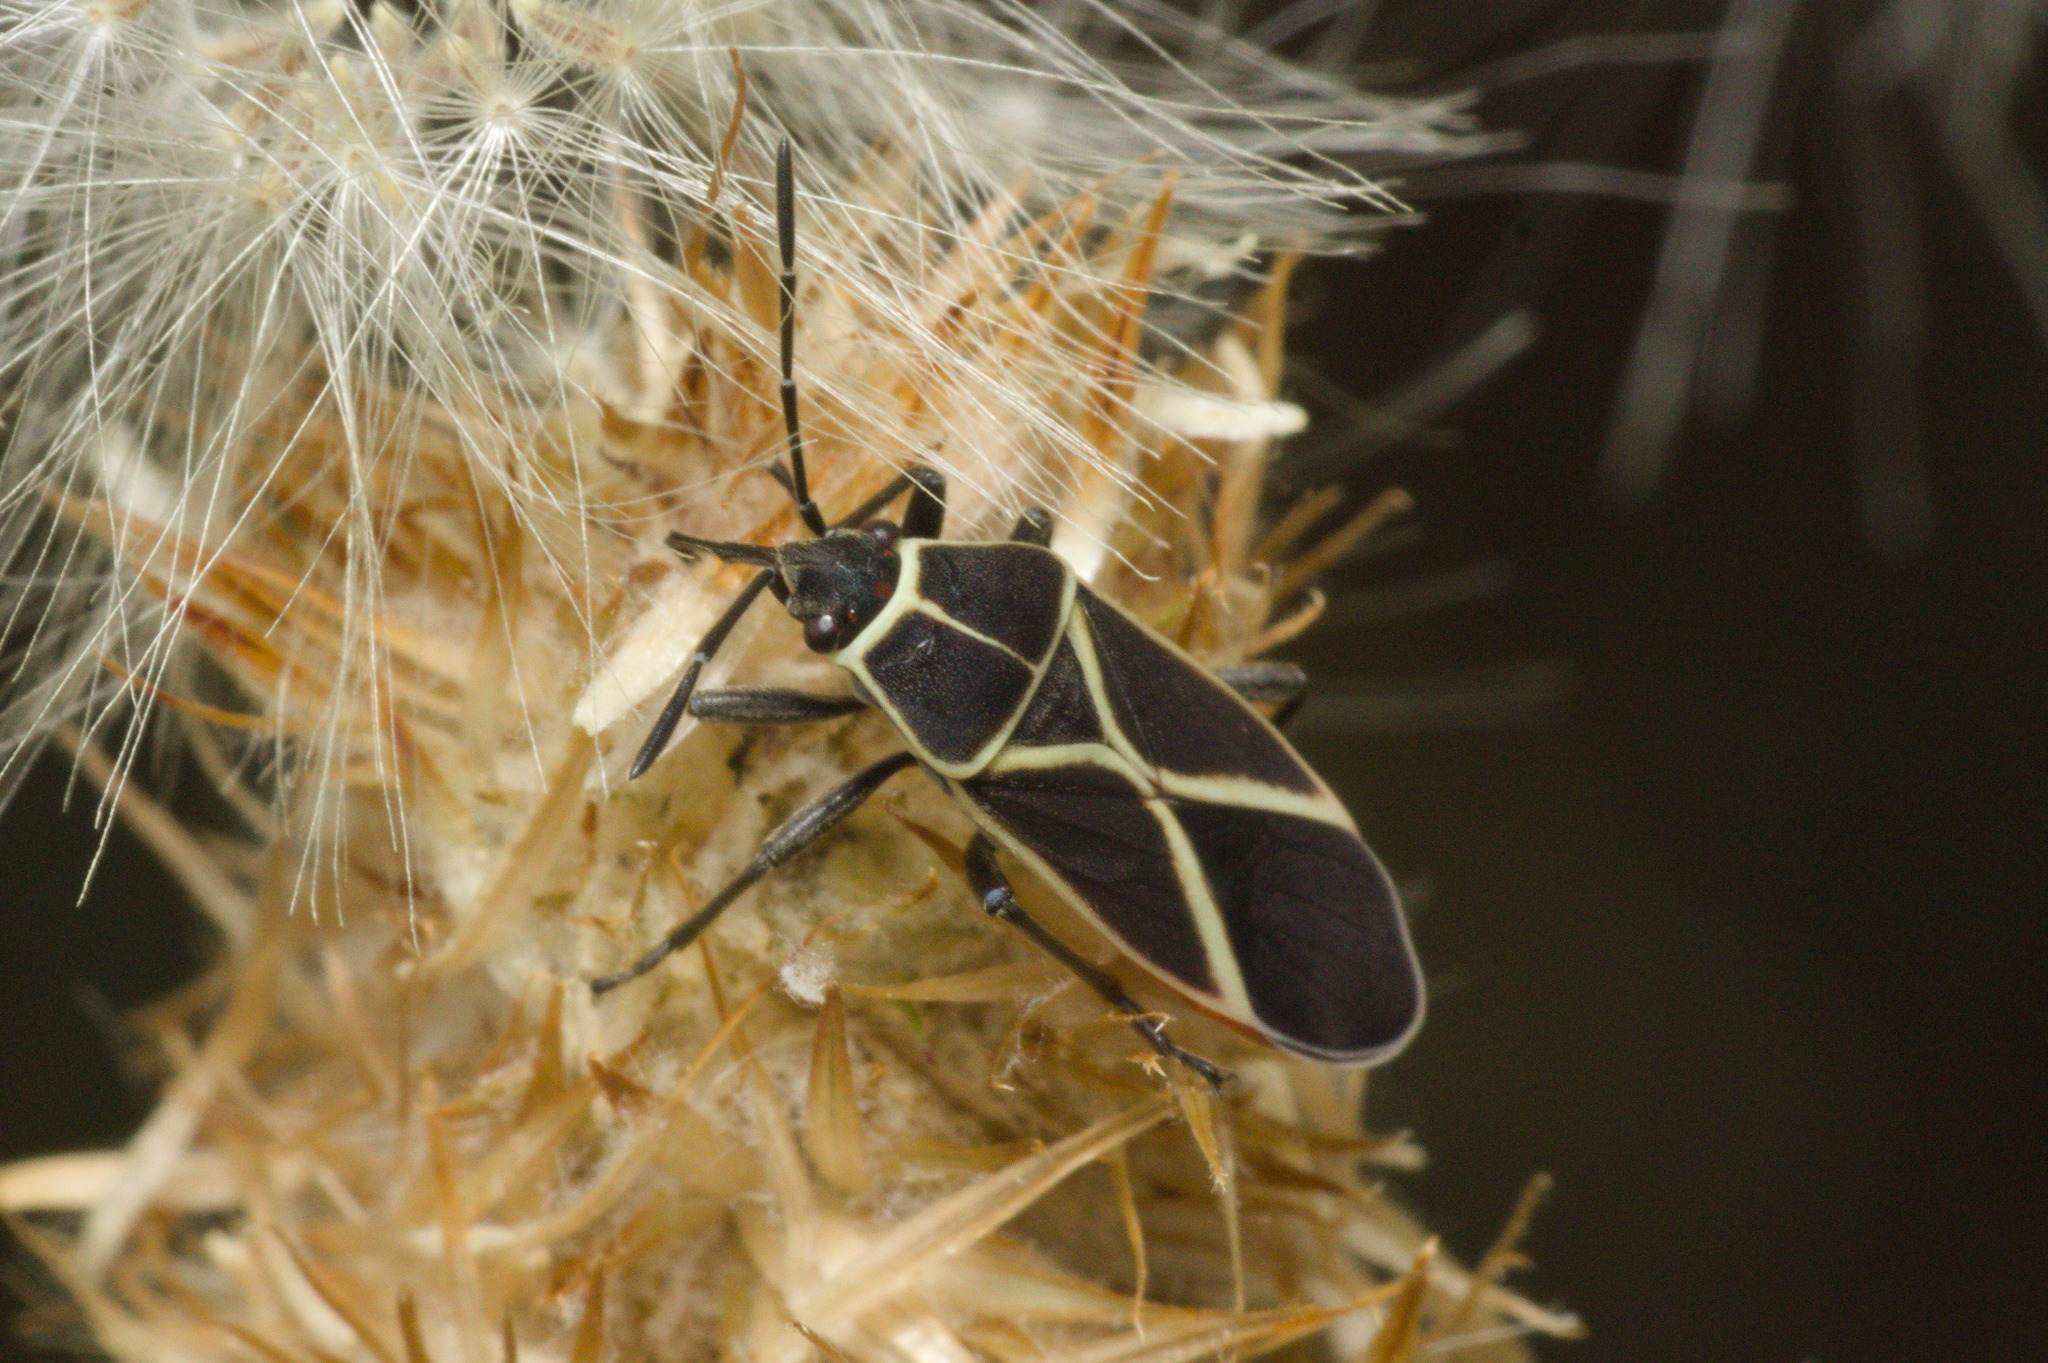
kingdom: Animalia
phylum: Arthropoda
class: Insecta
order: Hemiptera
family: Lygaeidae
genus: Craspeduchus
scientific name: Craspeduchus xanthostaurus
